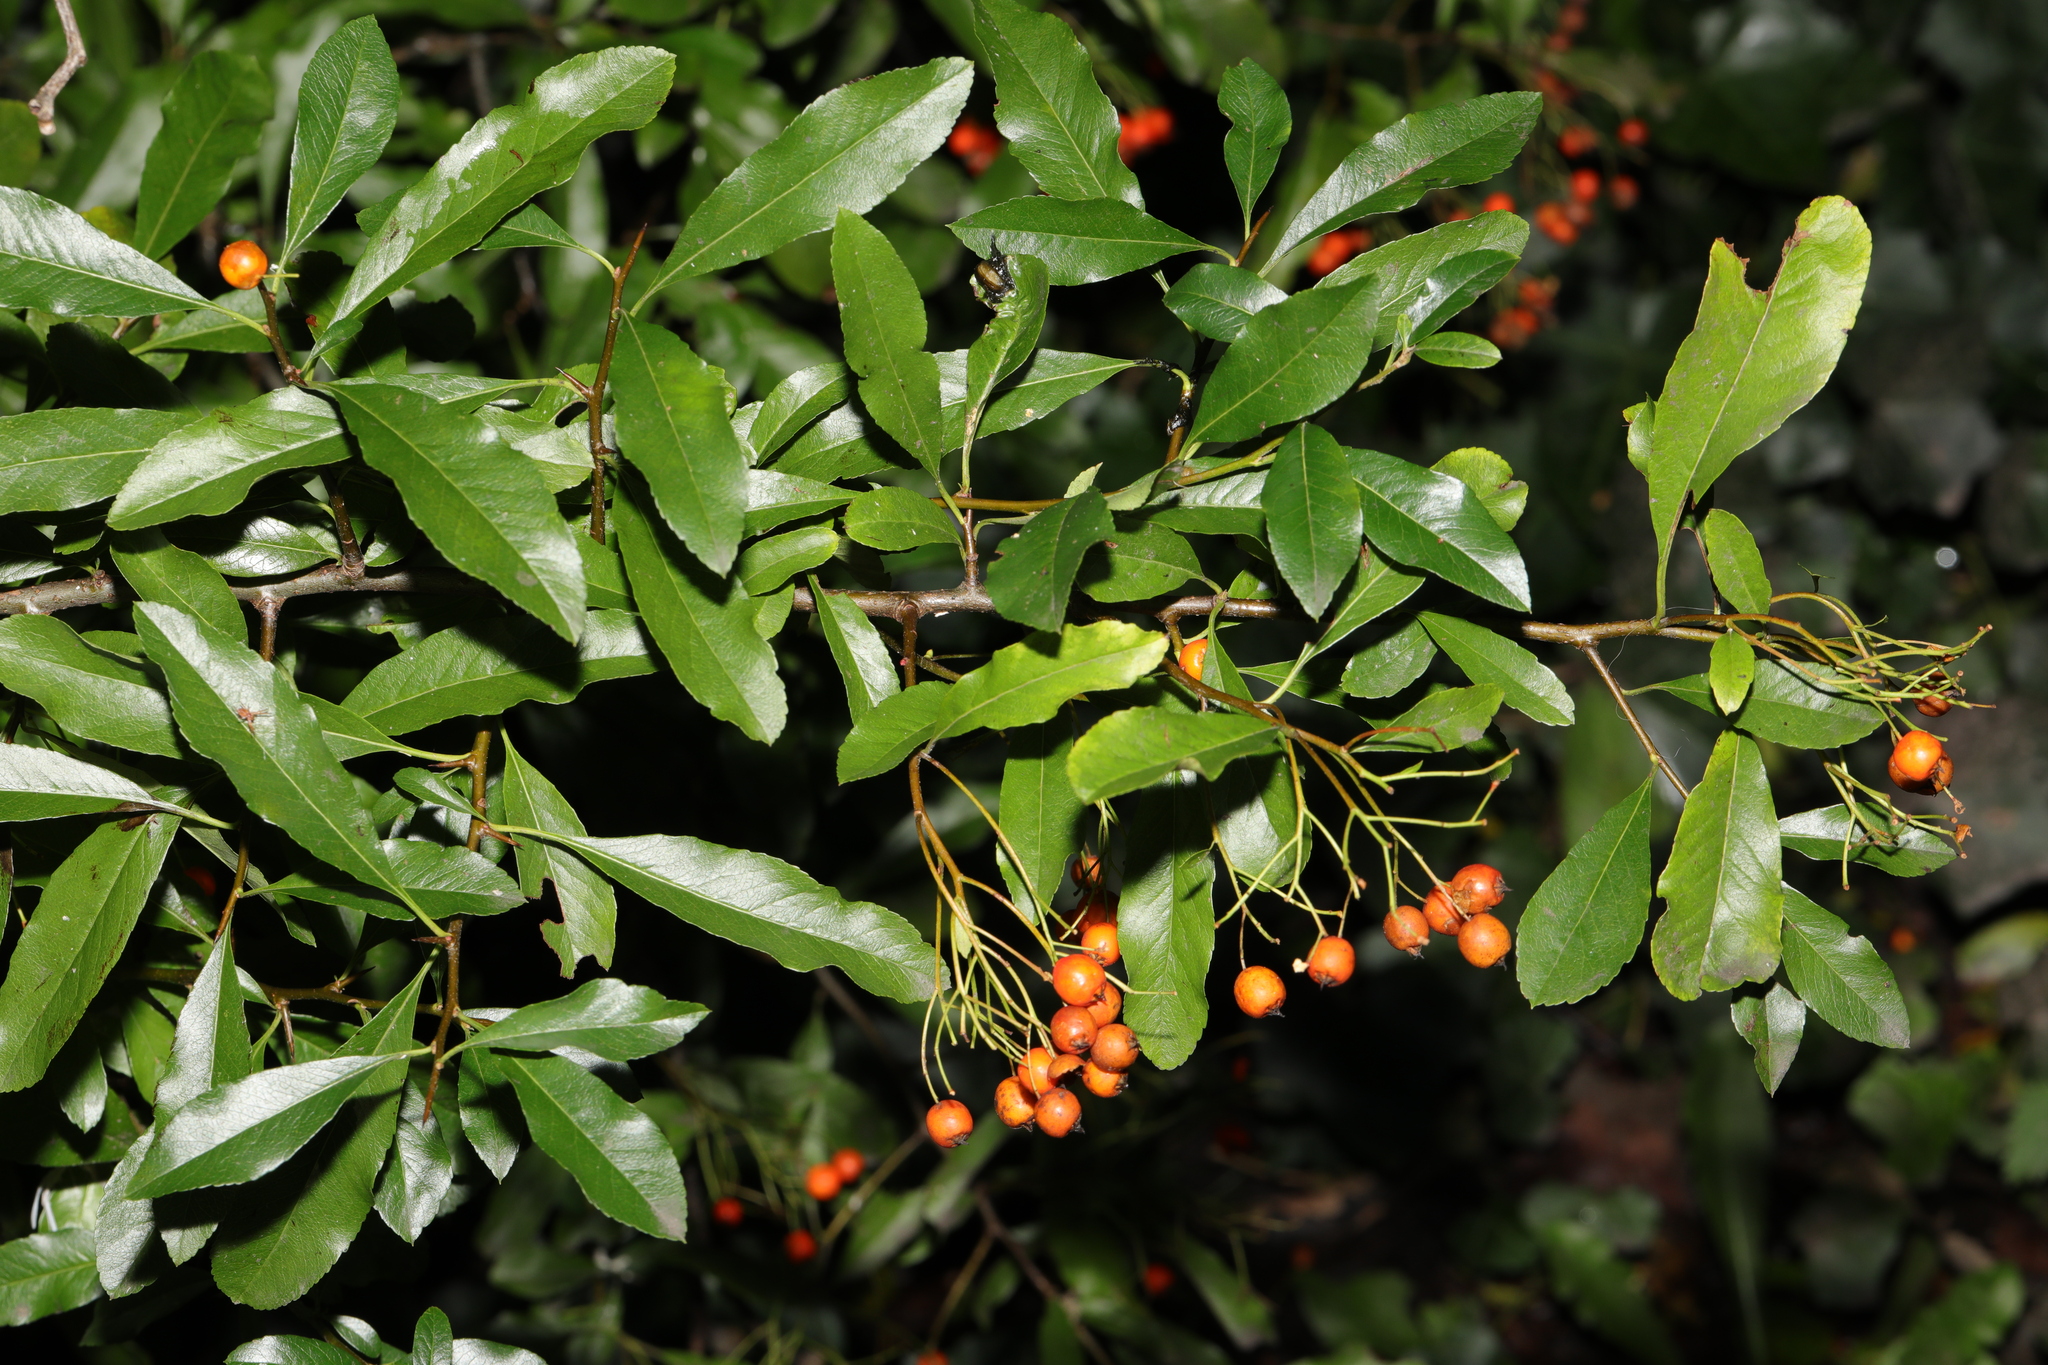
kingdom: Plantae
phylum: Tracheophyta
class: Magnoliopsida
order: Rosales
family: Rosaceae
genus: Pyracantha
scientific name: Pyracantha coccinea
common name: Firethorn
